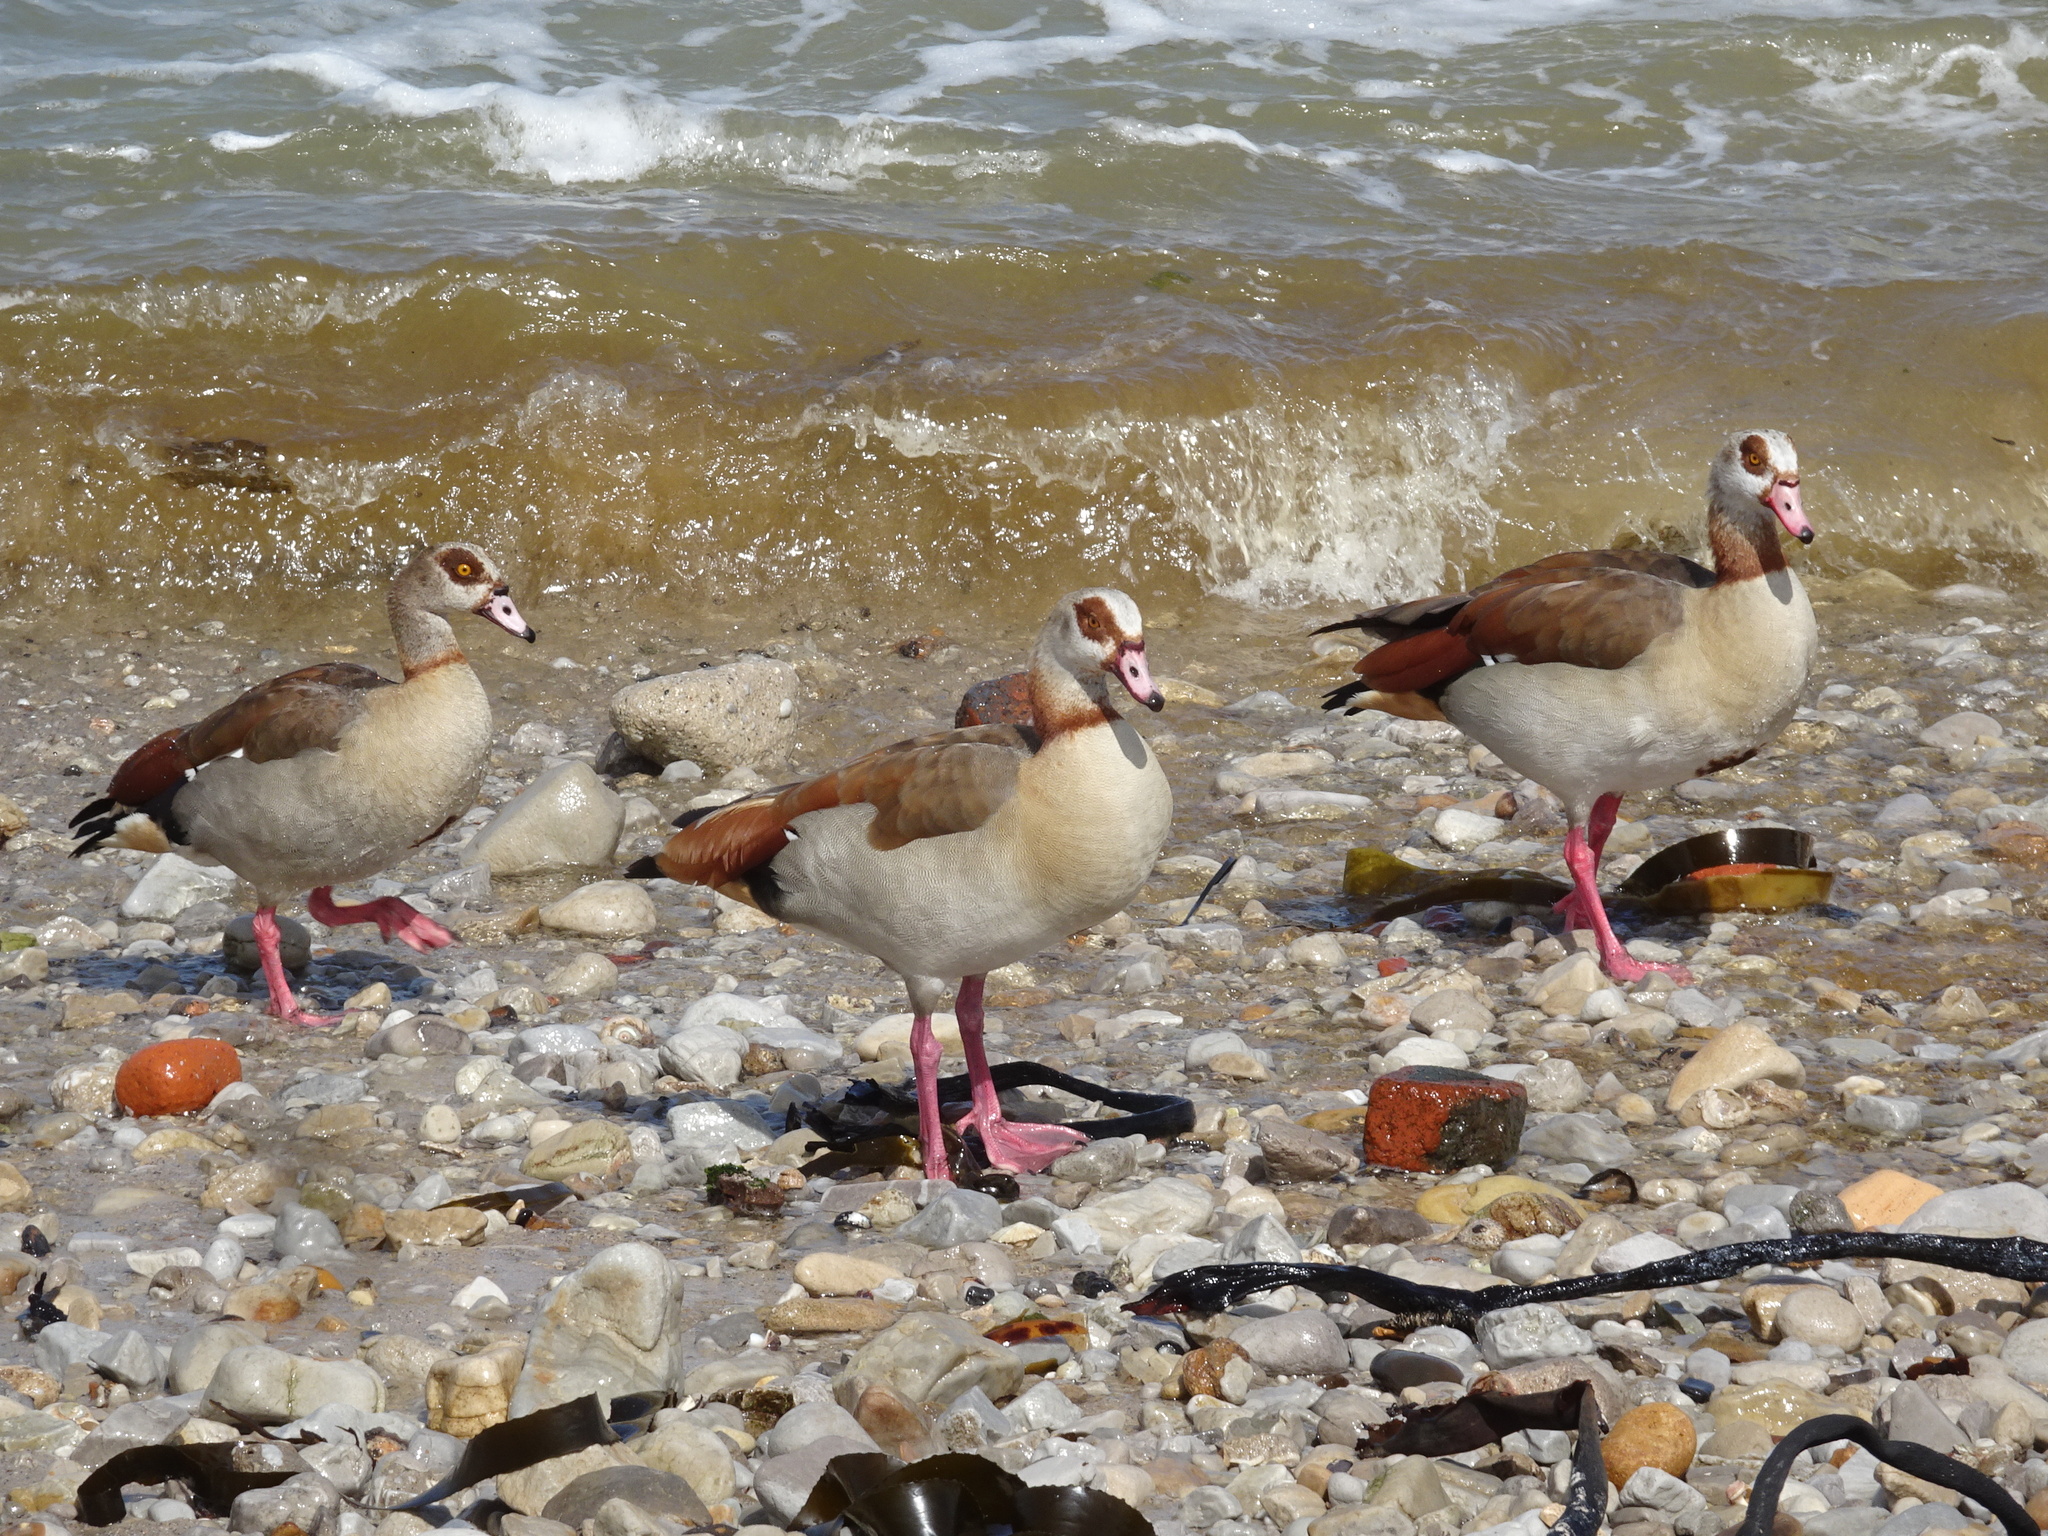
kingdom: Animalia
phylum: Chordata
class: Aves
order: Anseriformes
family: Anatidae
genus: Alopochen
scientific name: Alopochen aegyptiaca
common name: Egyptian goose
